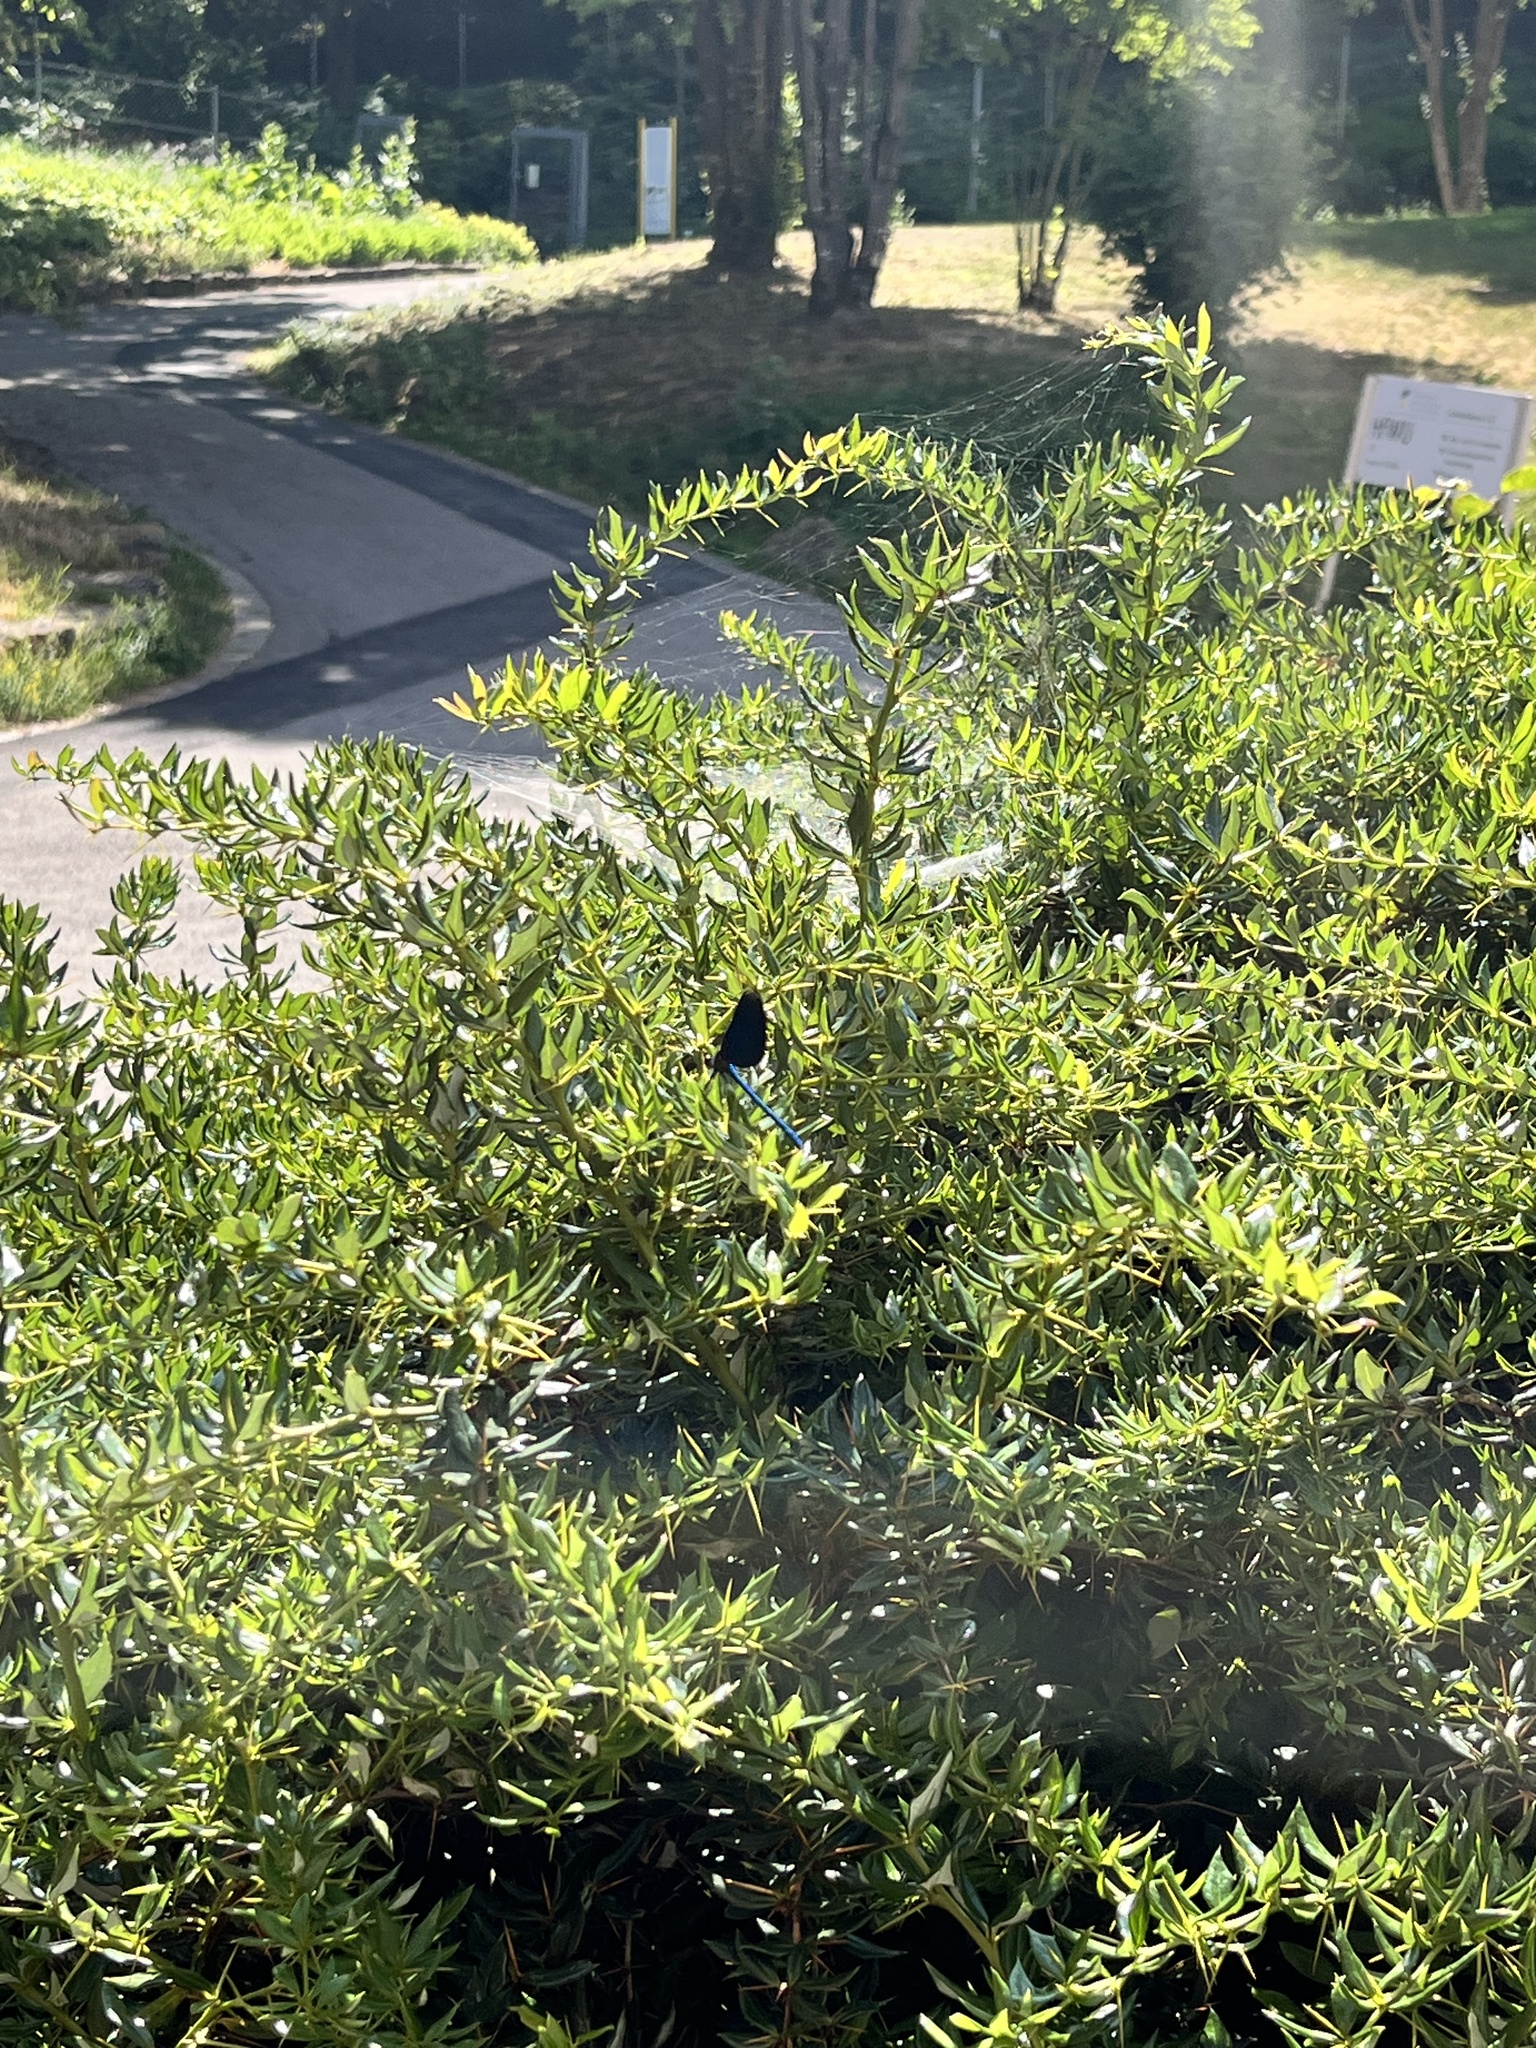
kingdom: Animalia
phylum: Arthropoda
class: Insecta
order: Odonata
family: Calopterygidae
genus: Calopteryx
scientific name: Calopteryx virgo
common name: Beautiful demoiselle
